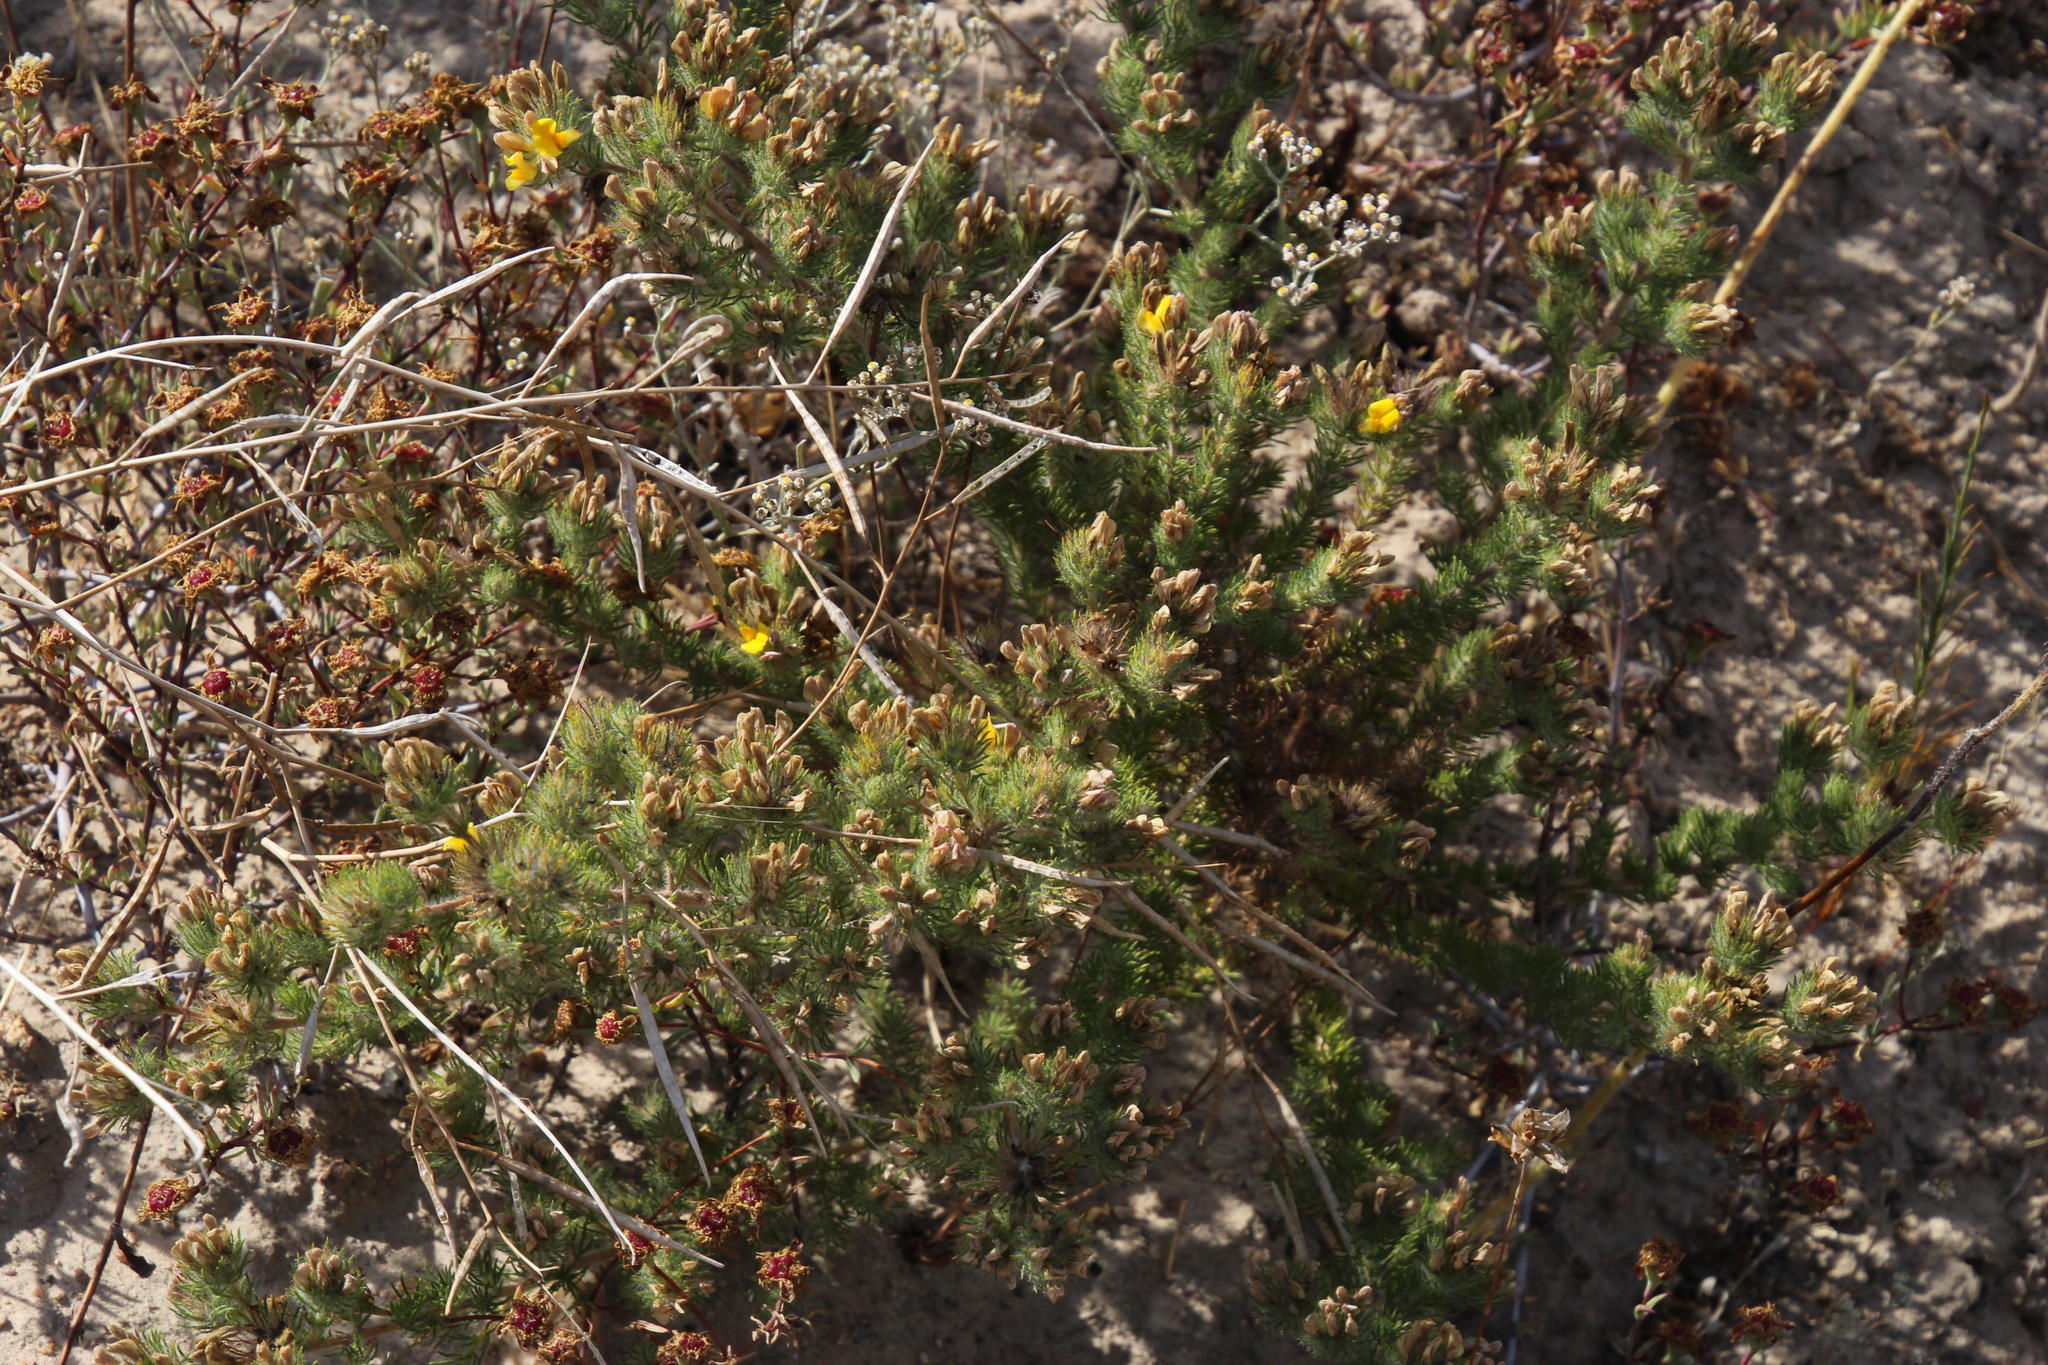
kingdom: Plantae
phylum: Tracheophyta
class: Magnoliopsida
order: Fabales
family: Fabaceae
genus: Aspalathus
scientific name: Aspalathus rubiginosa
